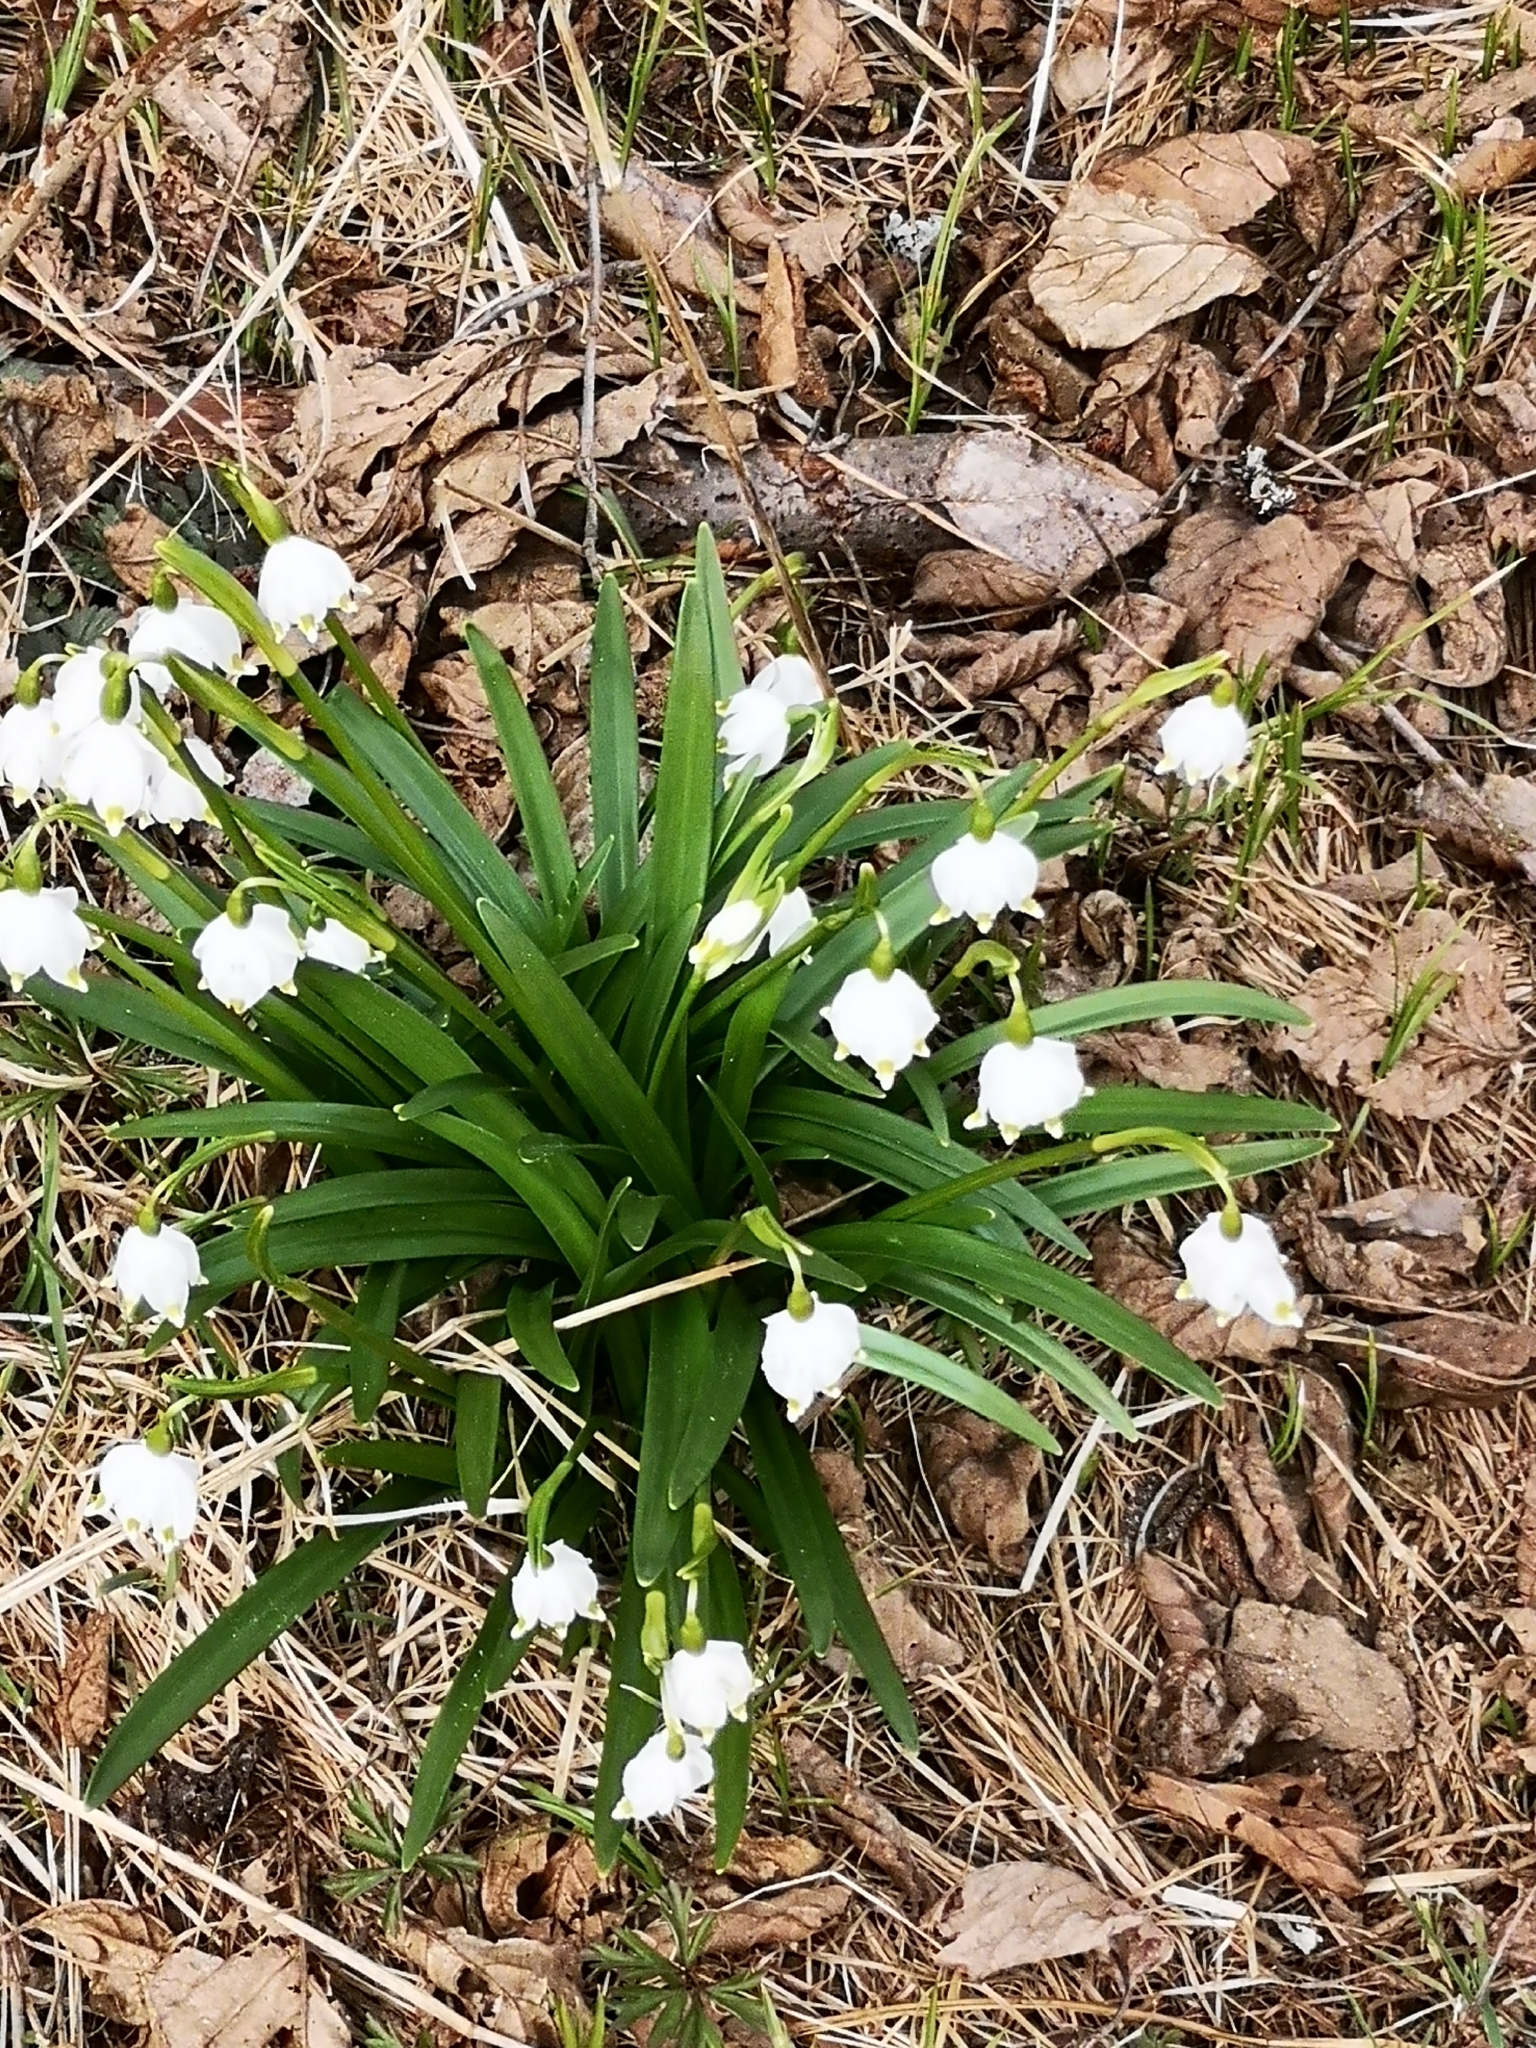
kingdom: Plantae
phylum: Tracheophyta
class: Liliopsida
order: Asparagales
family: Amaryllidaceae
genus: Leucojum
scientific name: Leucojum vernum
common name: Spring snowflake
